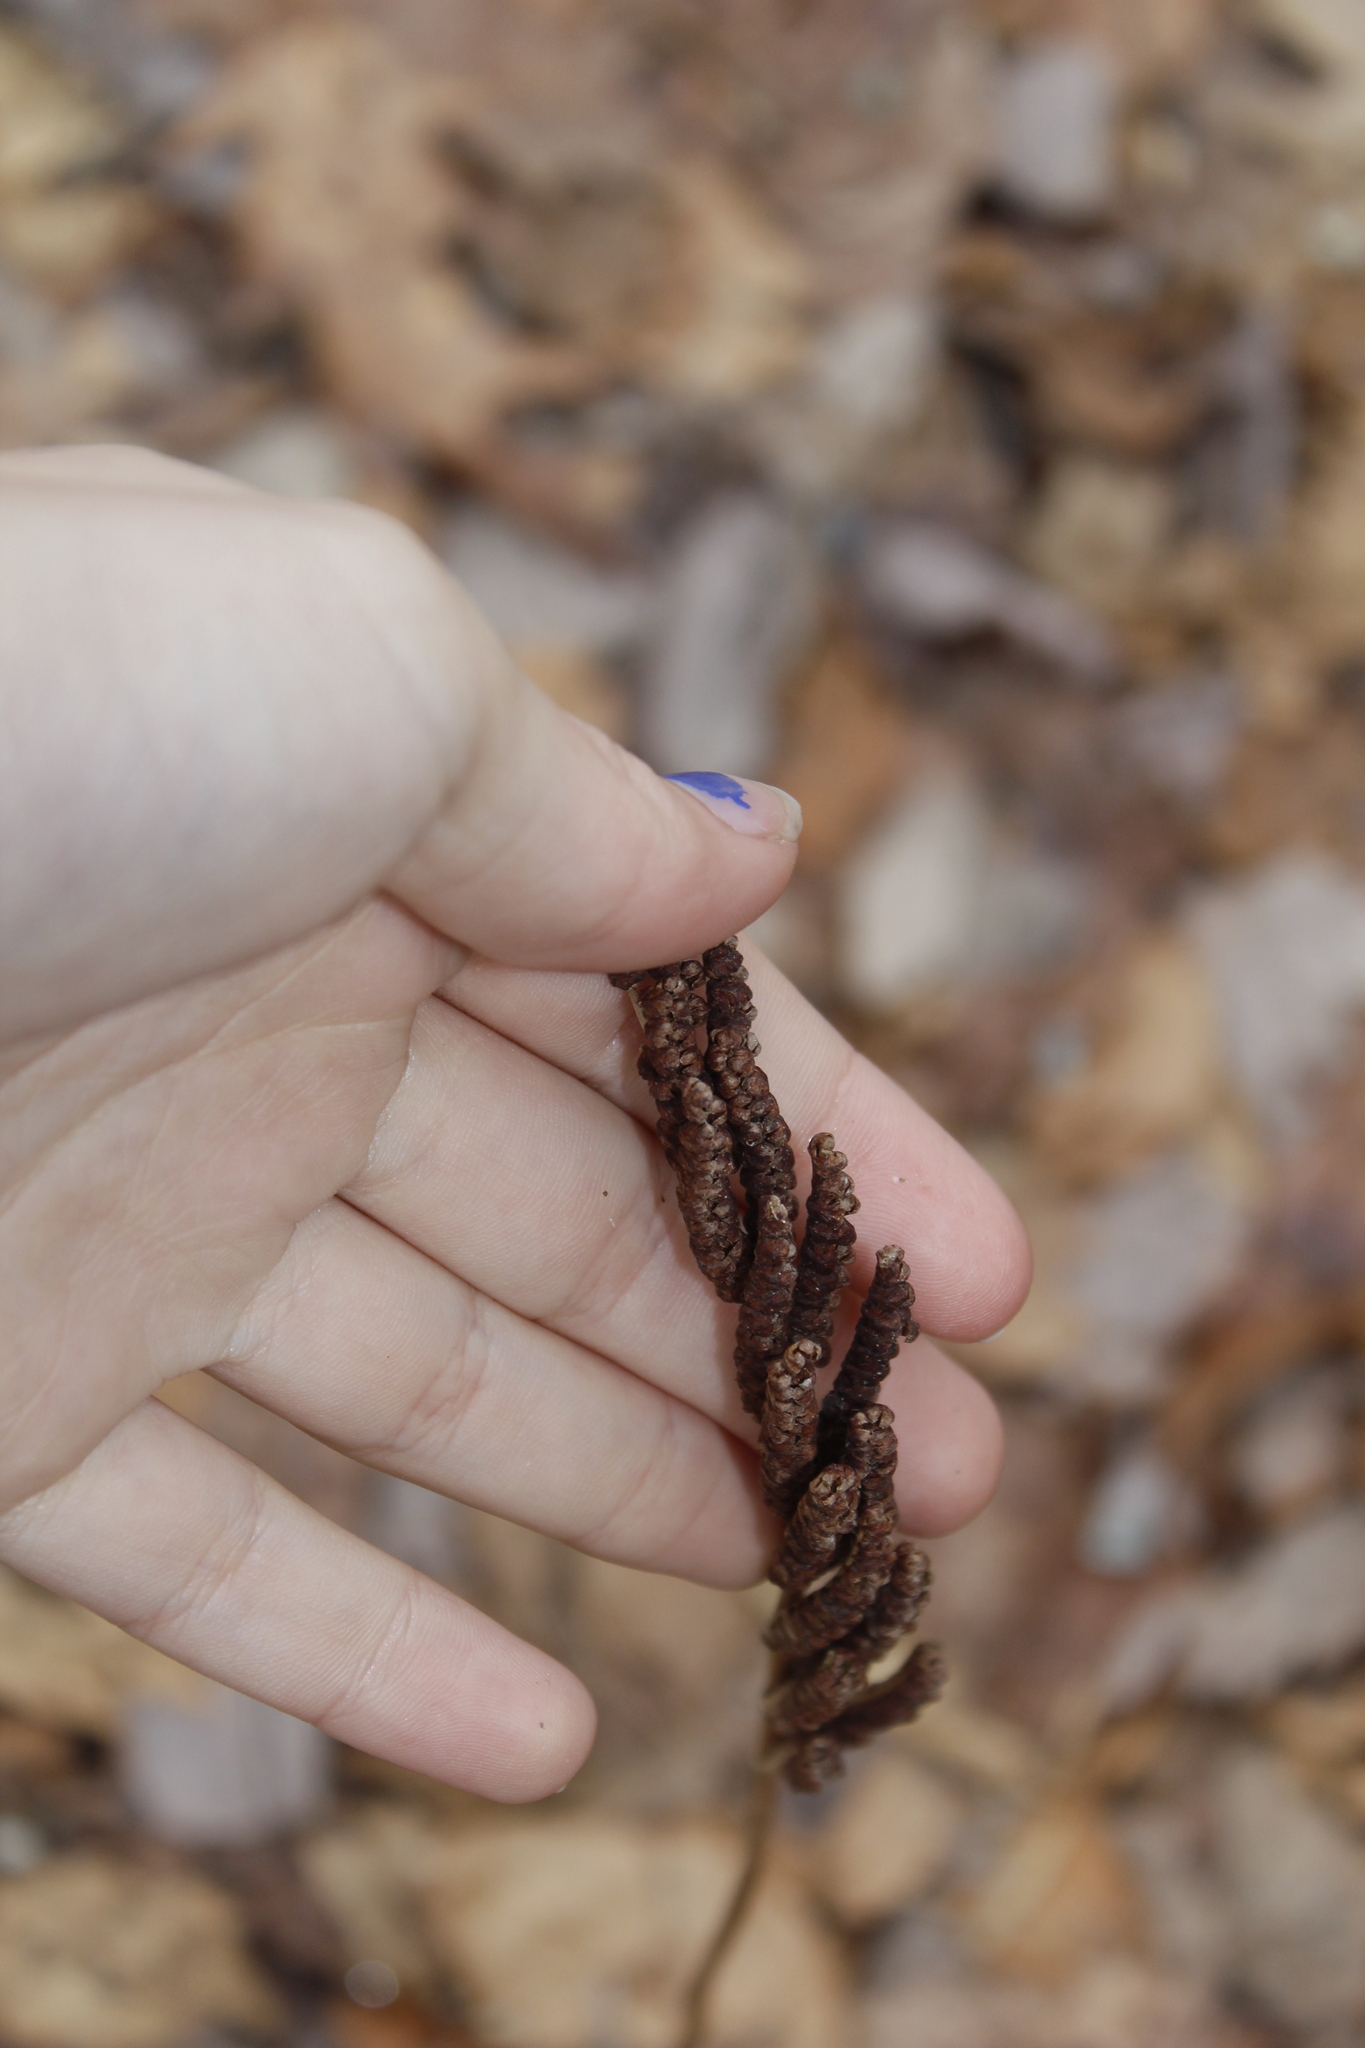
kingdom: Plantae
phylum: Tracheophyta
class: Polypodiopsida
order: Polypodiales
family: Onocleaceae
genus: Onoclea
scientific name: Onoclea sensibilis
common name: Sensitive fern
